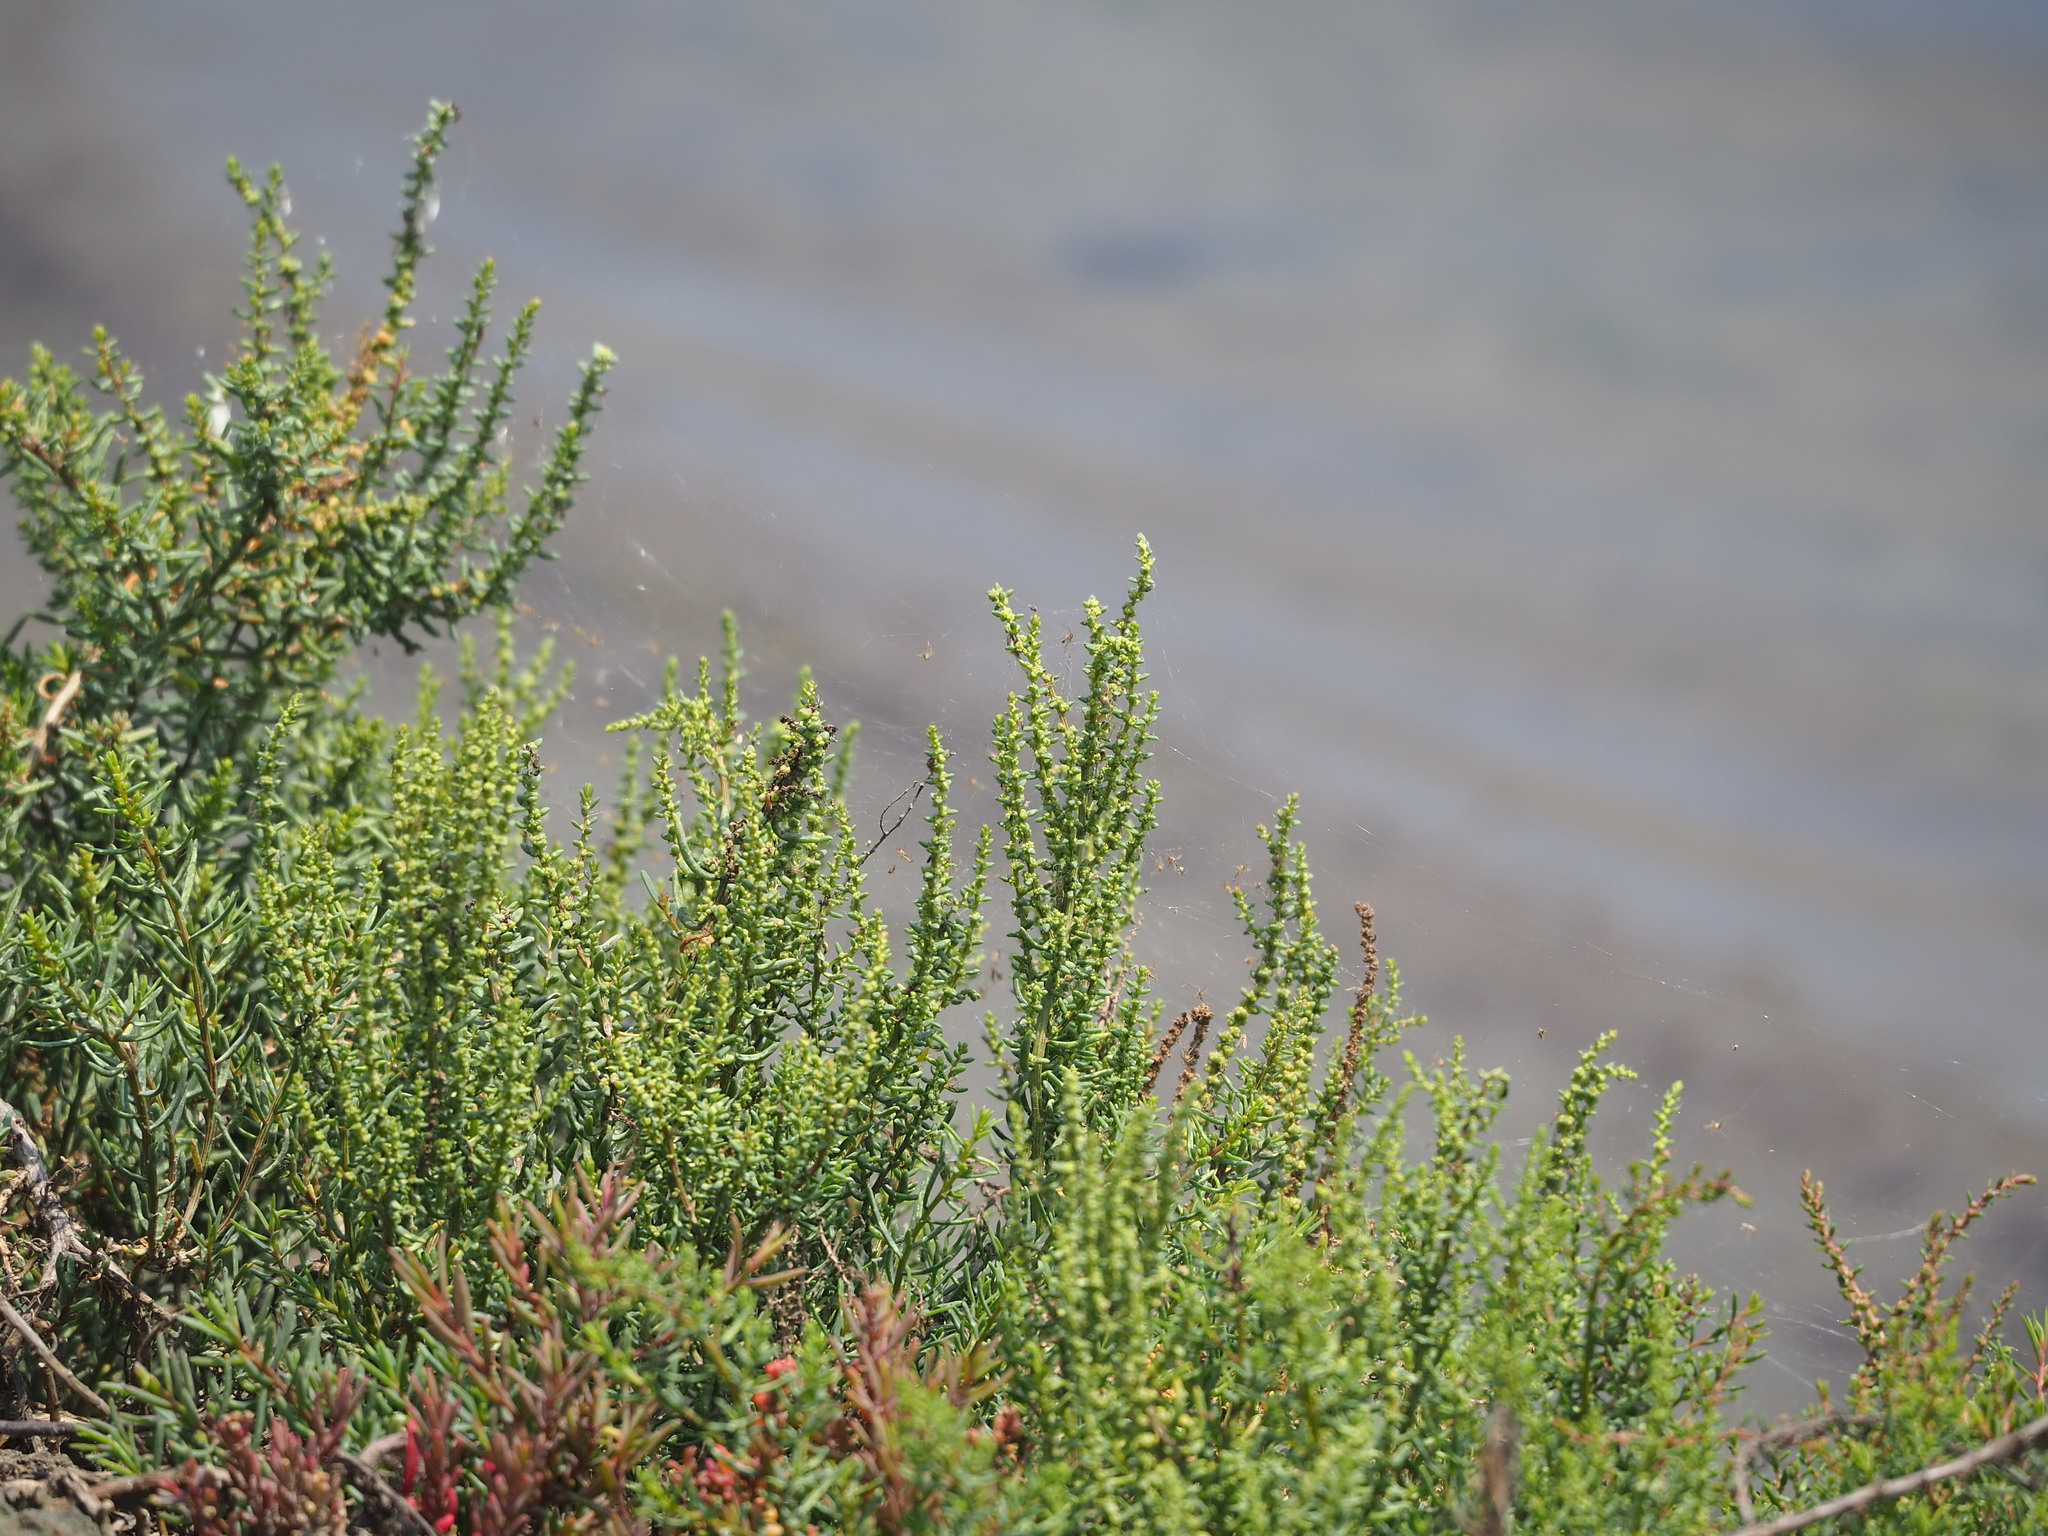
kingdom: Plantae
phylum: Tracheophyta
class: Magnoliopsida
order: Caryophyllales
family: Amaranthaceae
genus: Suaeda
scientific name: Suaeda maritima
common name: Annual sea-blite
